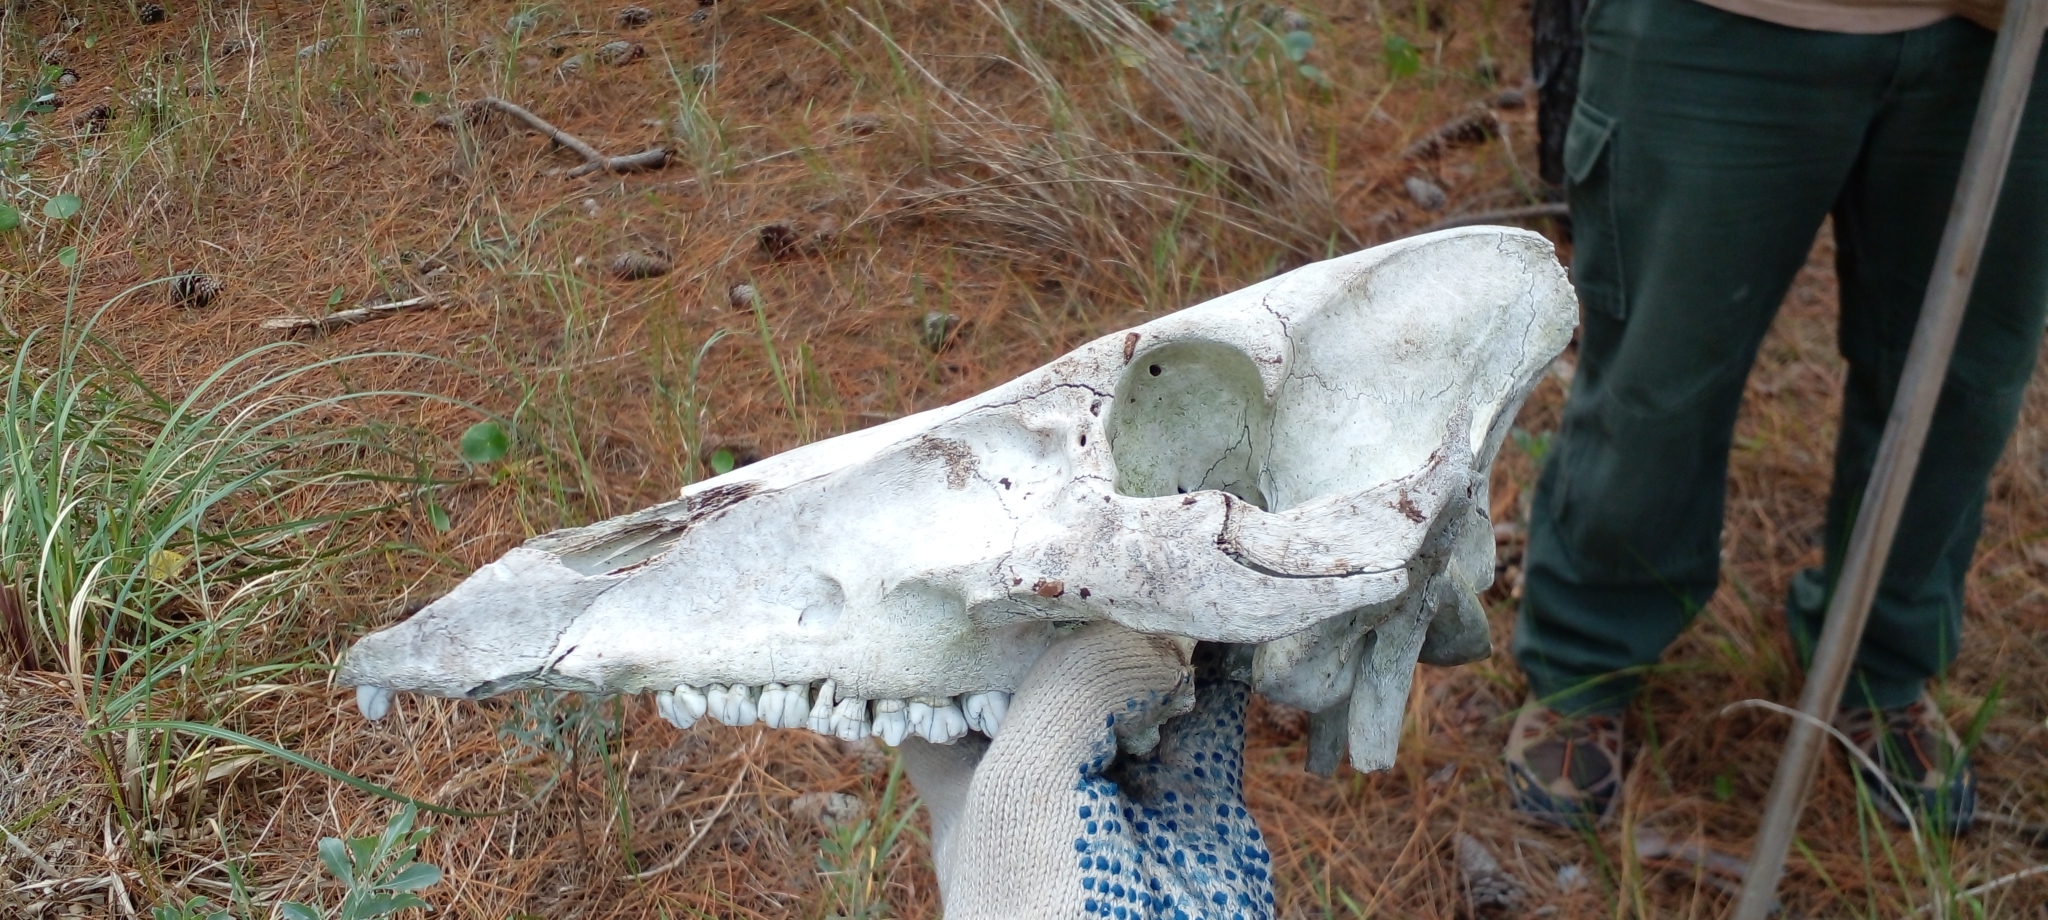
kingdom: Animalia
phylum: Chordata
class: Mammalia
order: Artiodactyla
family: Suidae
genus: Sus
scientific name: Sus scrofa
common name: Wild boar
